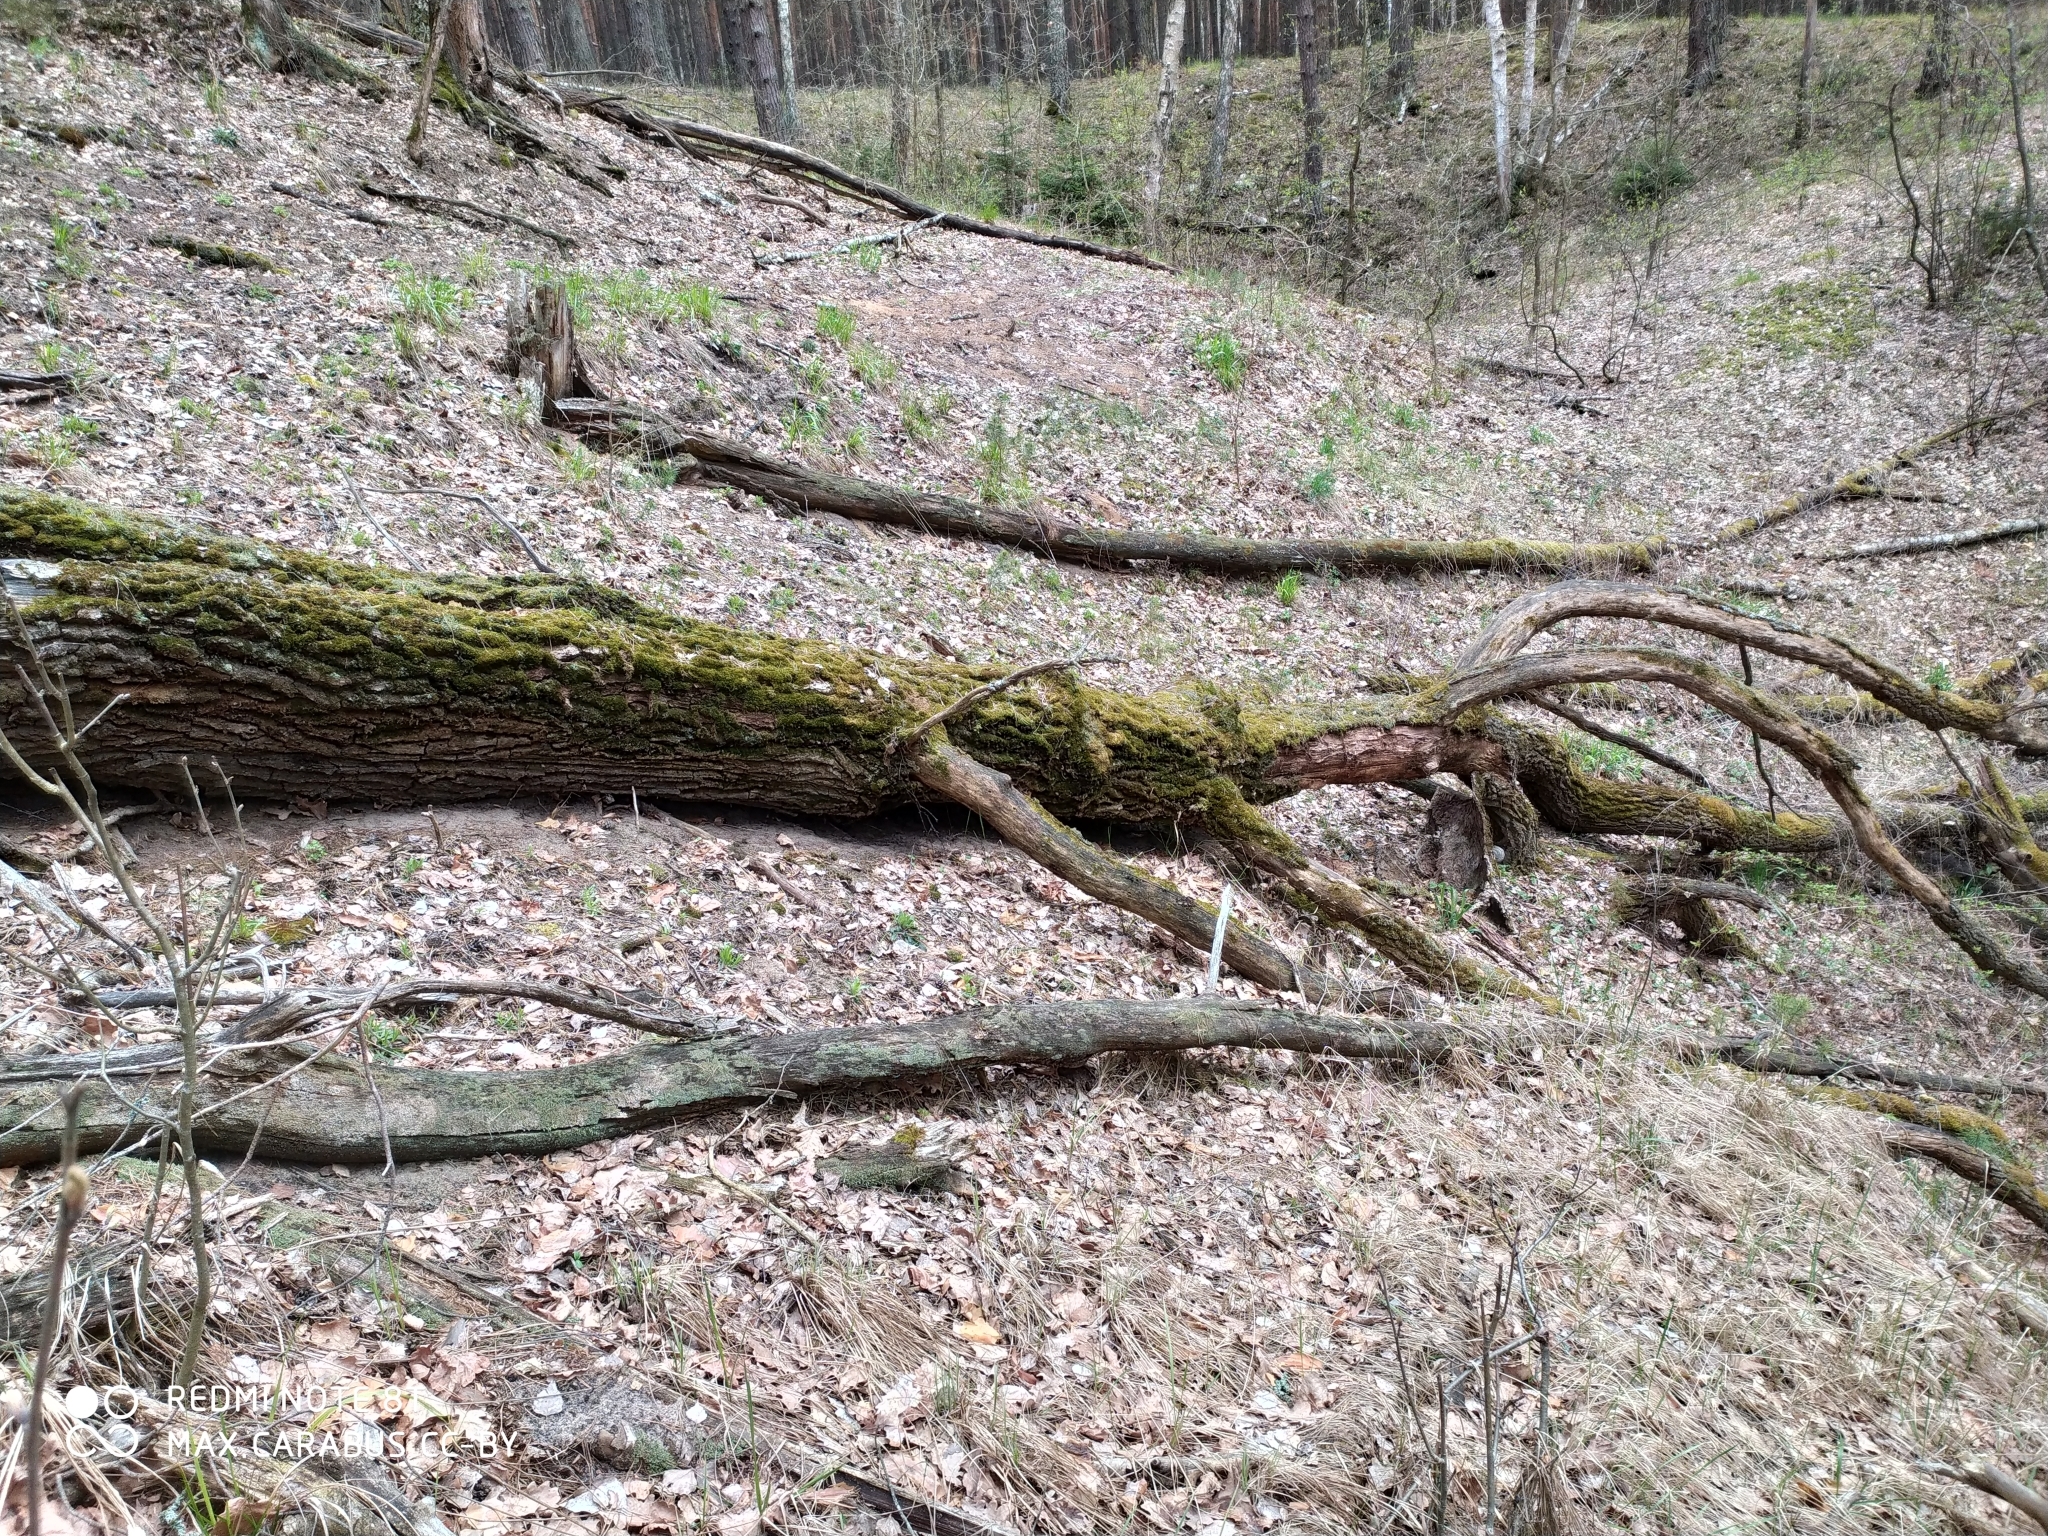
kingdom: Plantae
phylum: Tracheophyta
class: Magnoliopsida
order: Fagales
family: Fagaceae
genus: Quercus
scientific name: Quercus robur
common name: Pedunculate oak
